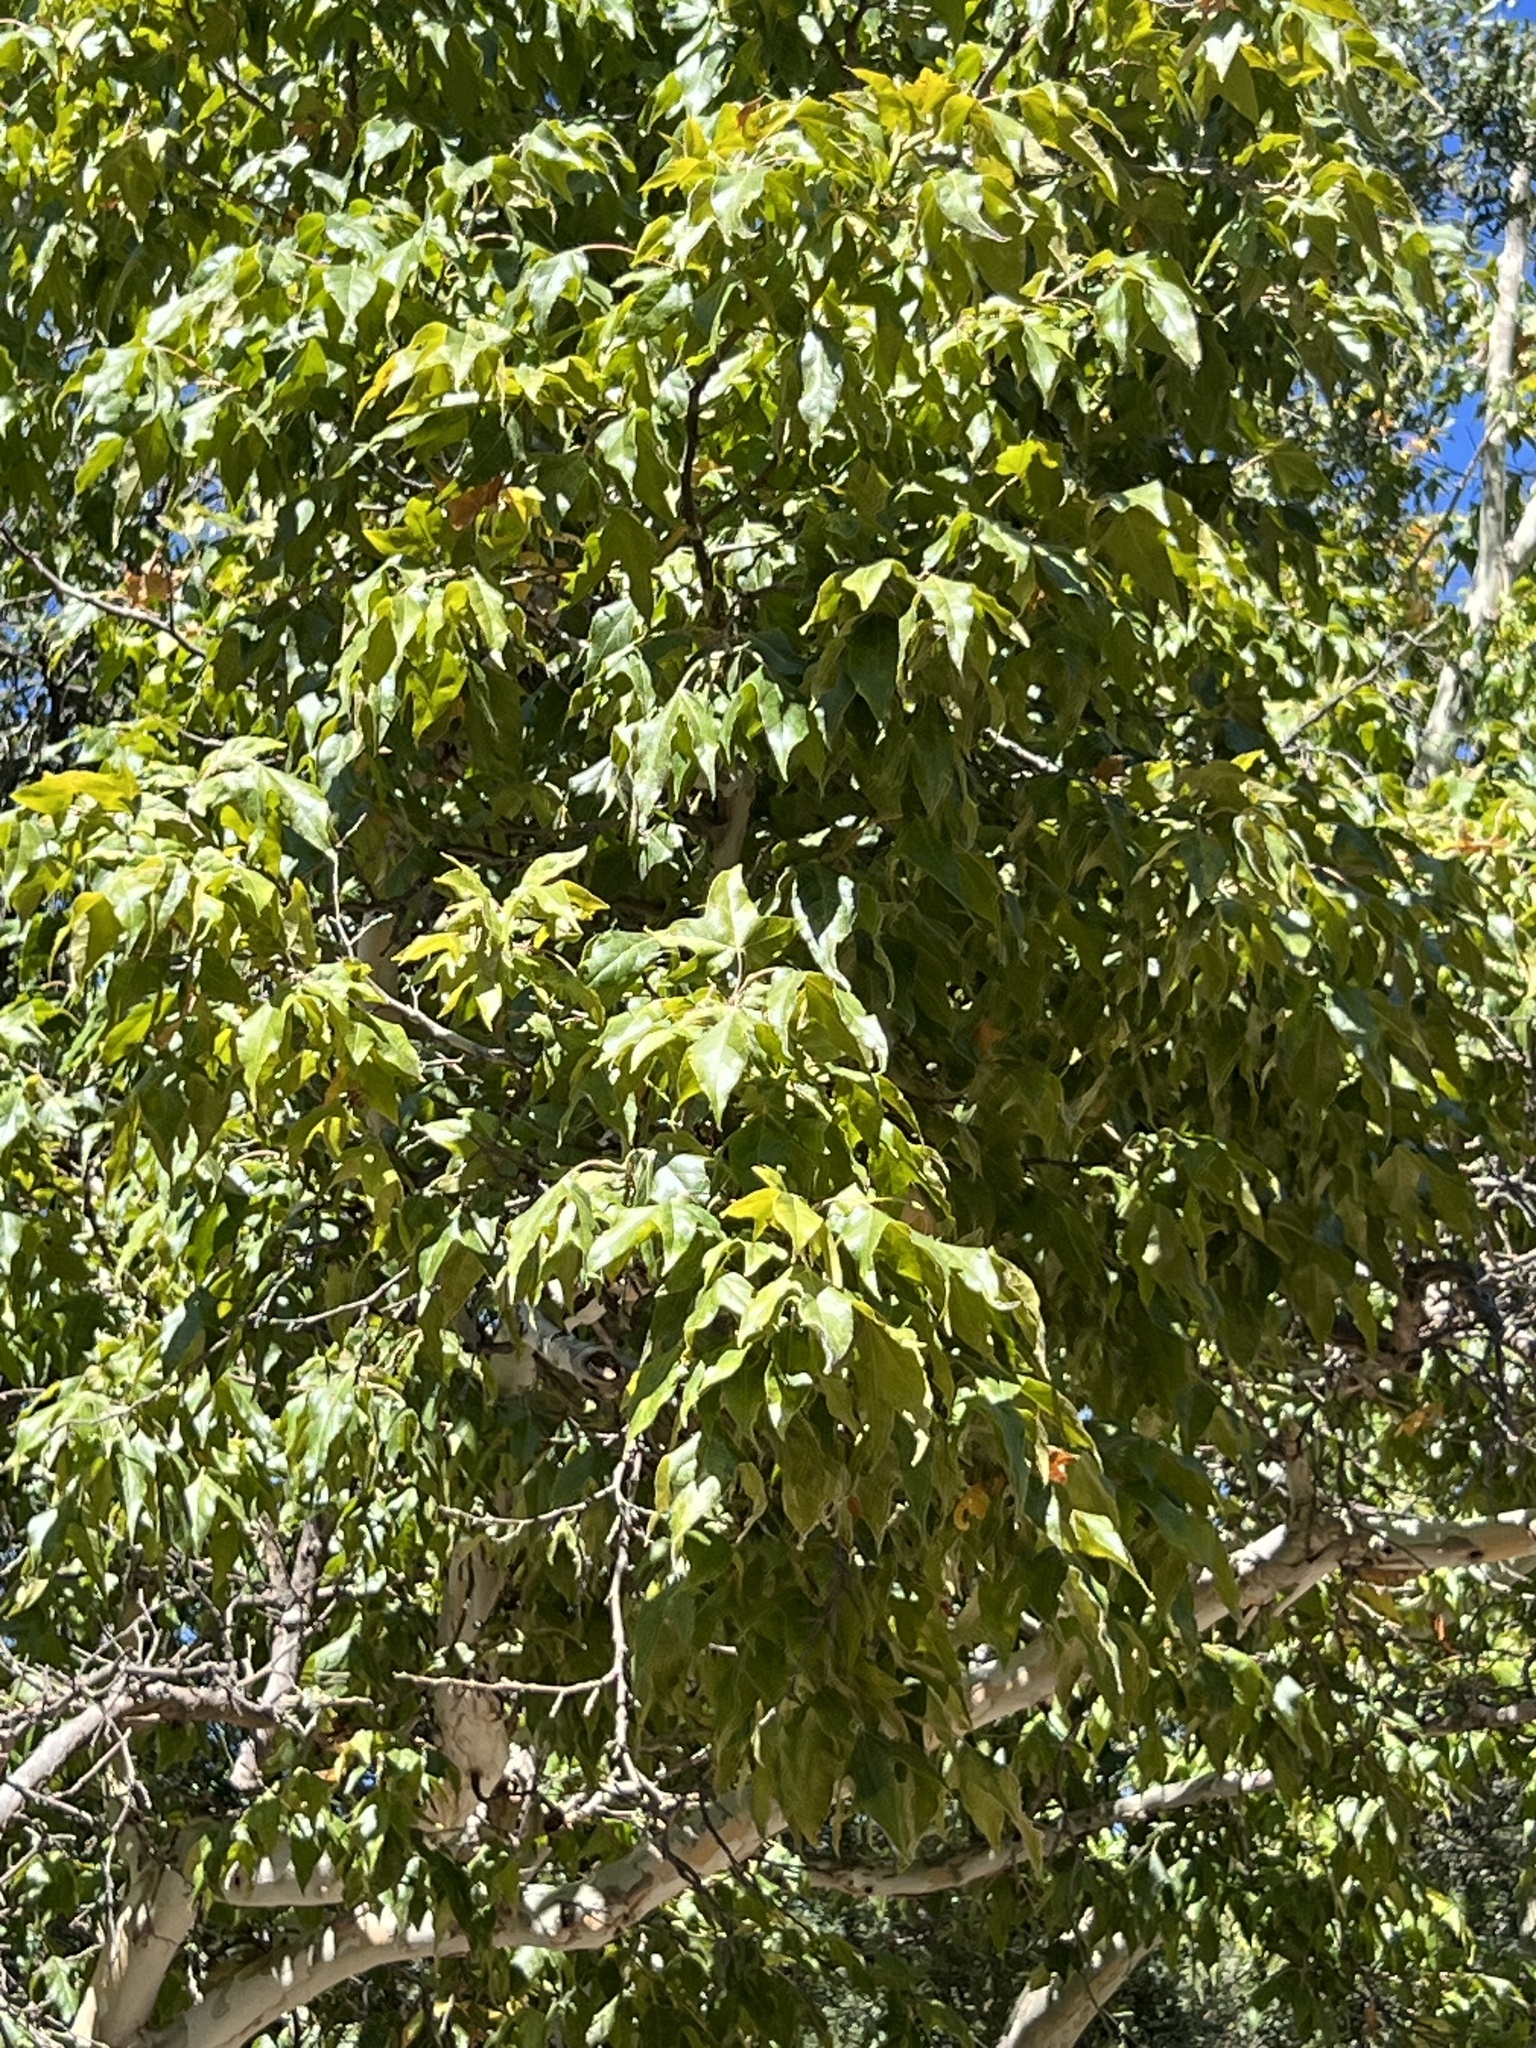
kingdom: Plantae
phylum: Tracheophyta
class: Magnoliopsida
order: Proteales
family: Platanaceae
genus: Platanus
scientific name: Platanus wrightii
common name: Arizona sycamore
